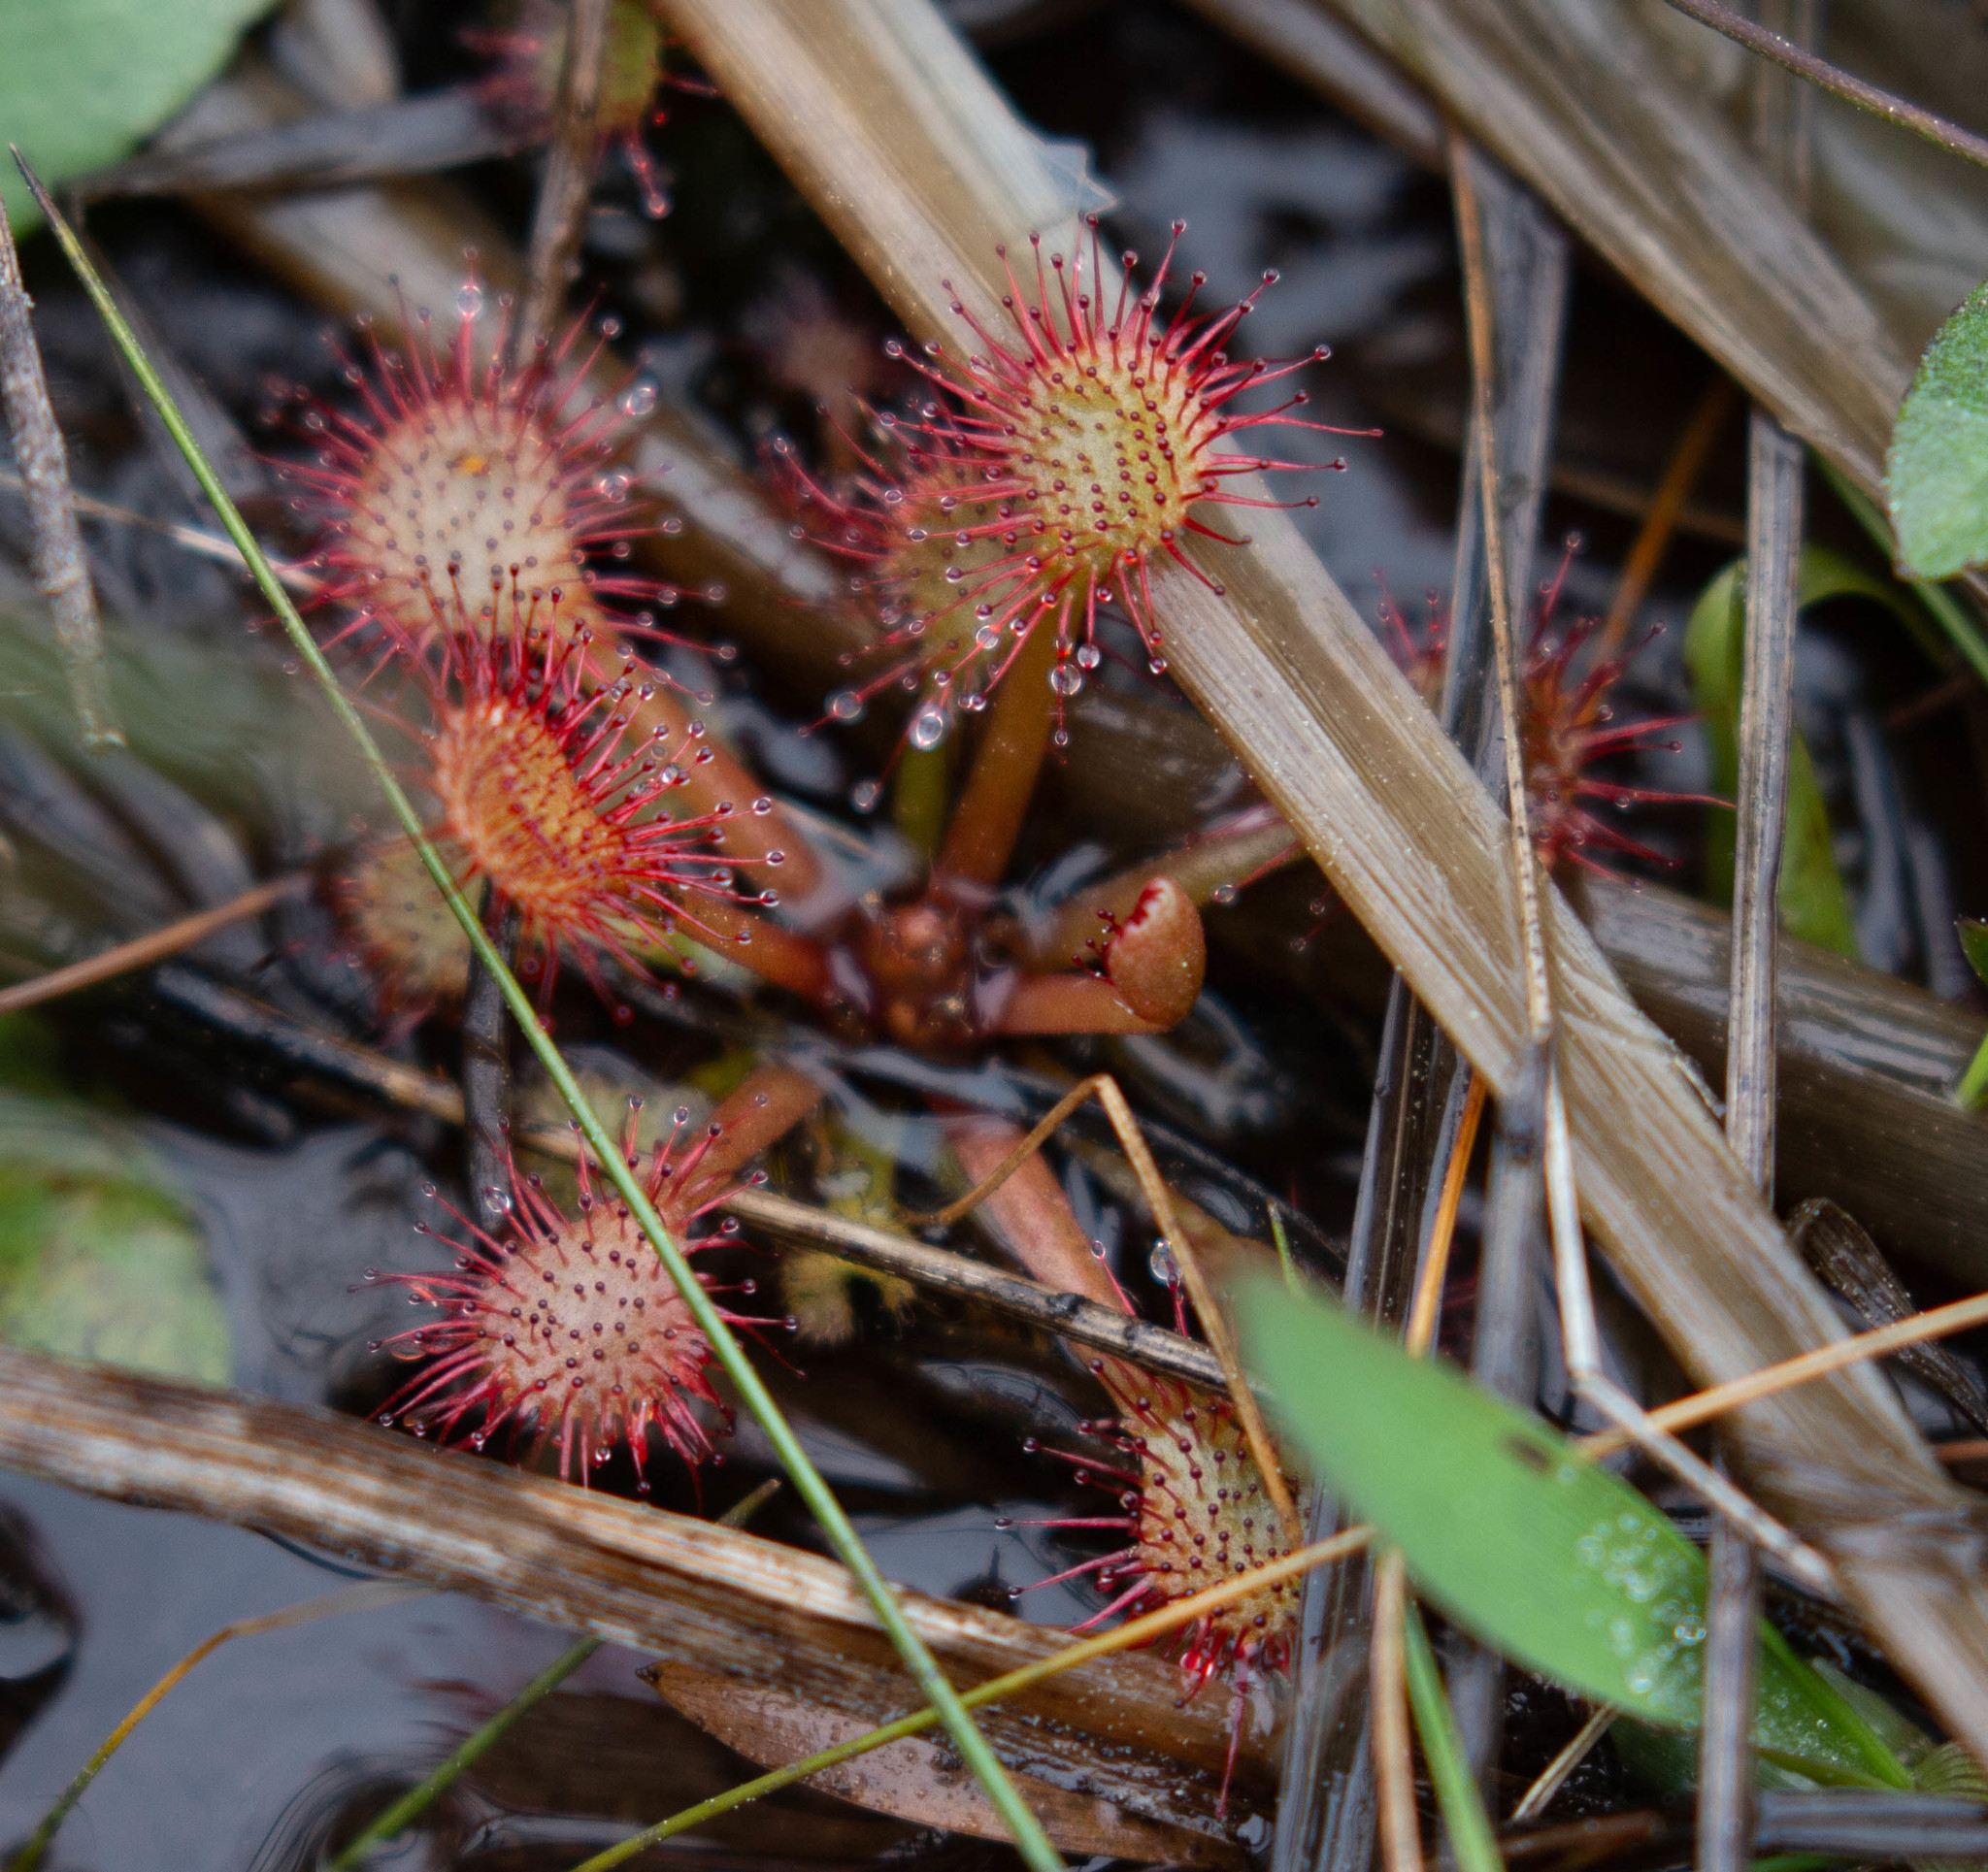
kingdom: Plantae
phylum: Tracheophyta
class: Magnoliopsida
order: Caryophyllales
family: Droseraceae
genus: Drosera
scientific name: Drosera capillaris
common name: Pink sundew
